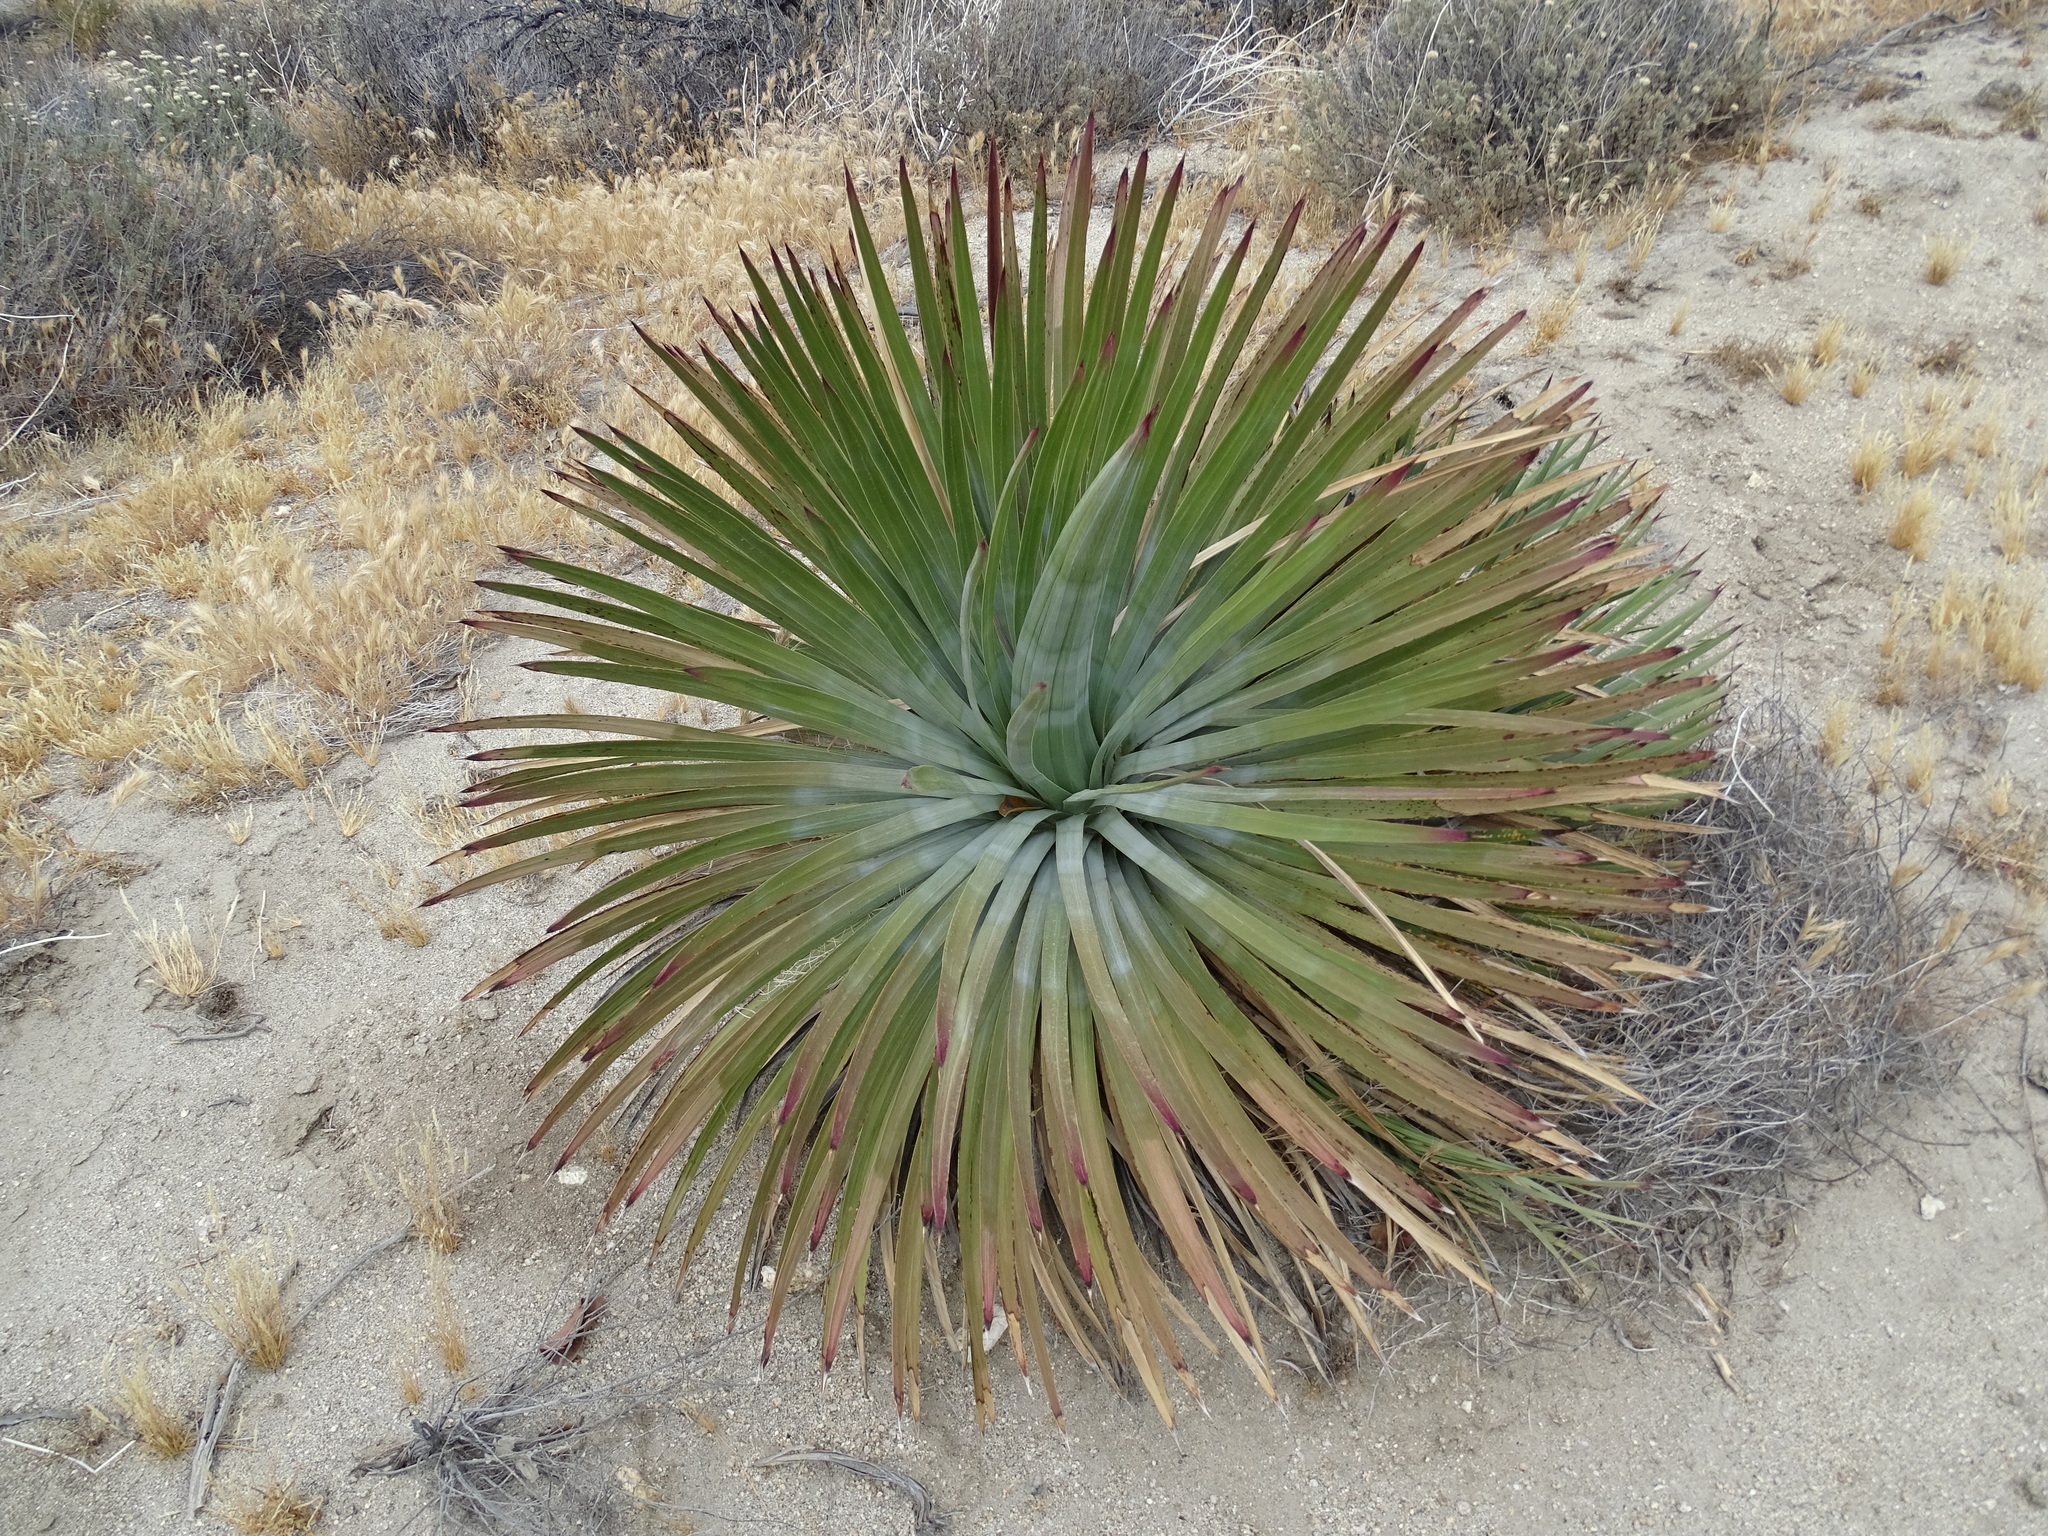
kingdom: Plantae
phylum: Tracheophyta
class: Liliopsida
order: Asparagales
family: Asparagaceae
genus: Hesperoyucca
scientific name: Hesperoyucca whipplei
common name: Our lord's-candle
